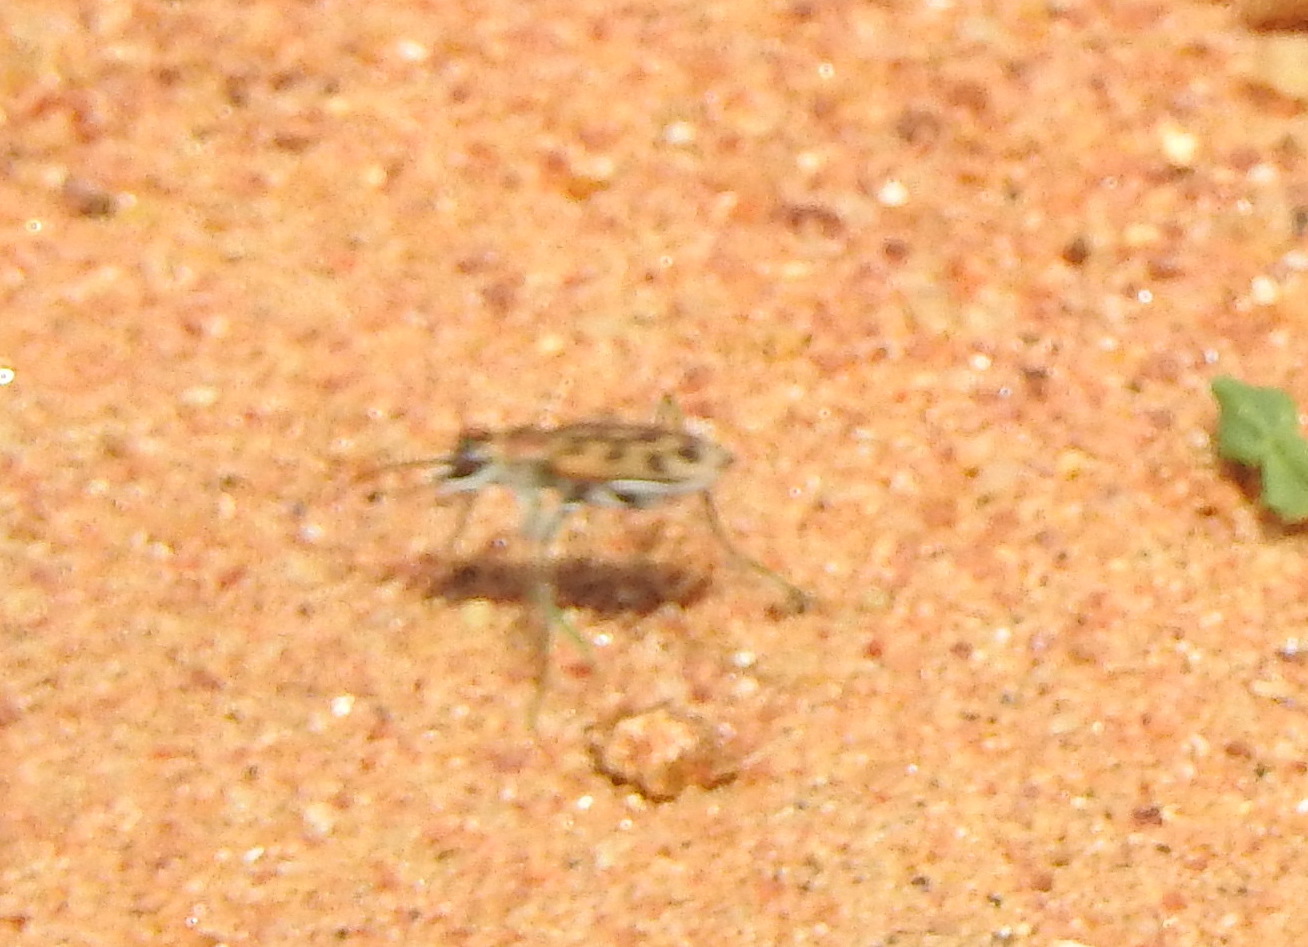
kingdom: Animalia
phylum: Arthropoda
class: Insecta
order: Coleoptera
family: Carabidae
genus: Lophyra
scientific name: Lophyra catena
